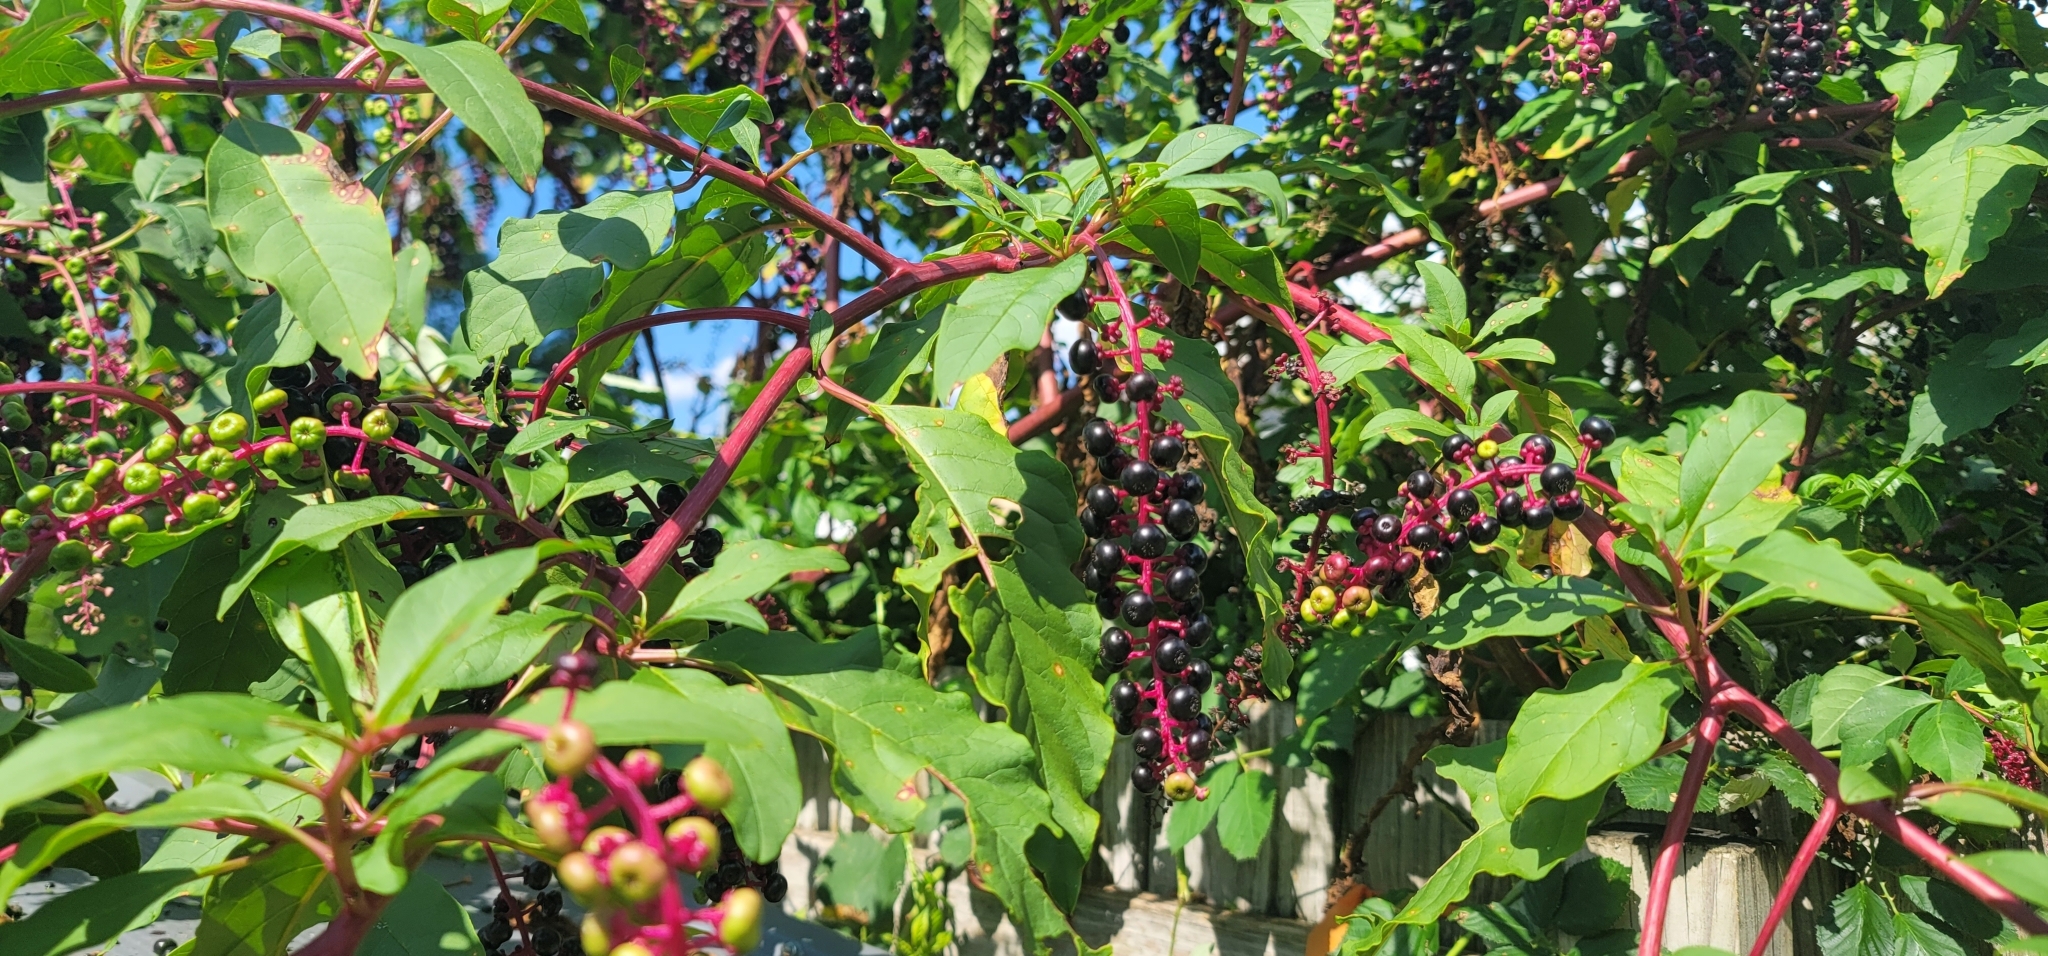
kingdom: Plantae
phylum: Tracheophyta
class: Magnoliopsida
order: Caryophyllales
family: Phytolaccaceae
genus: Phytolacca
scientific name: Phytolacca americana
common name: American pokeweed
